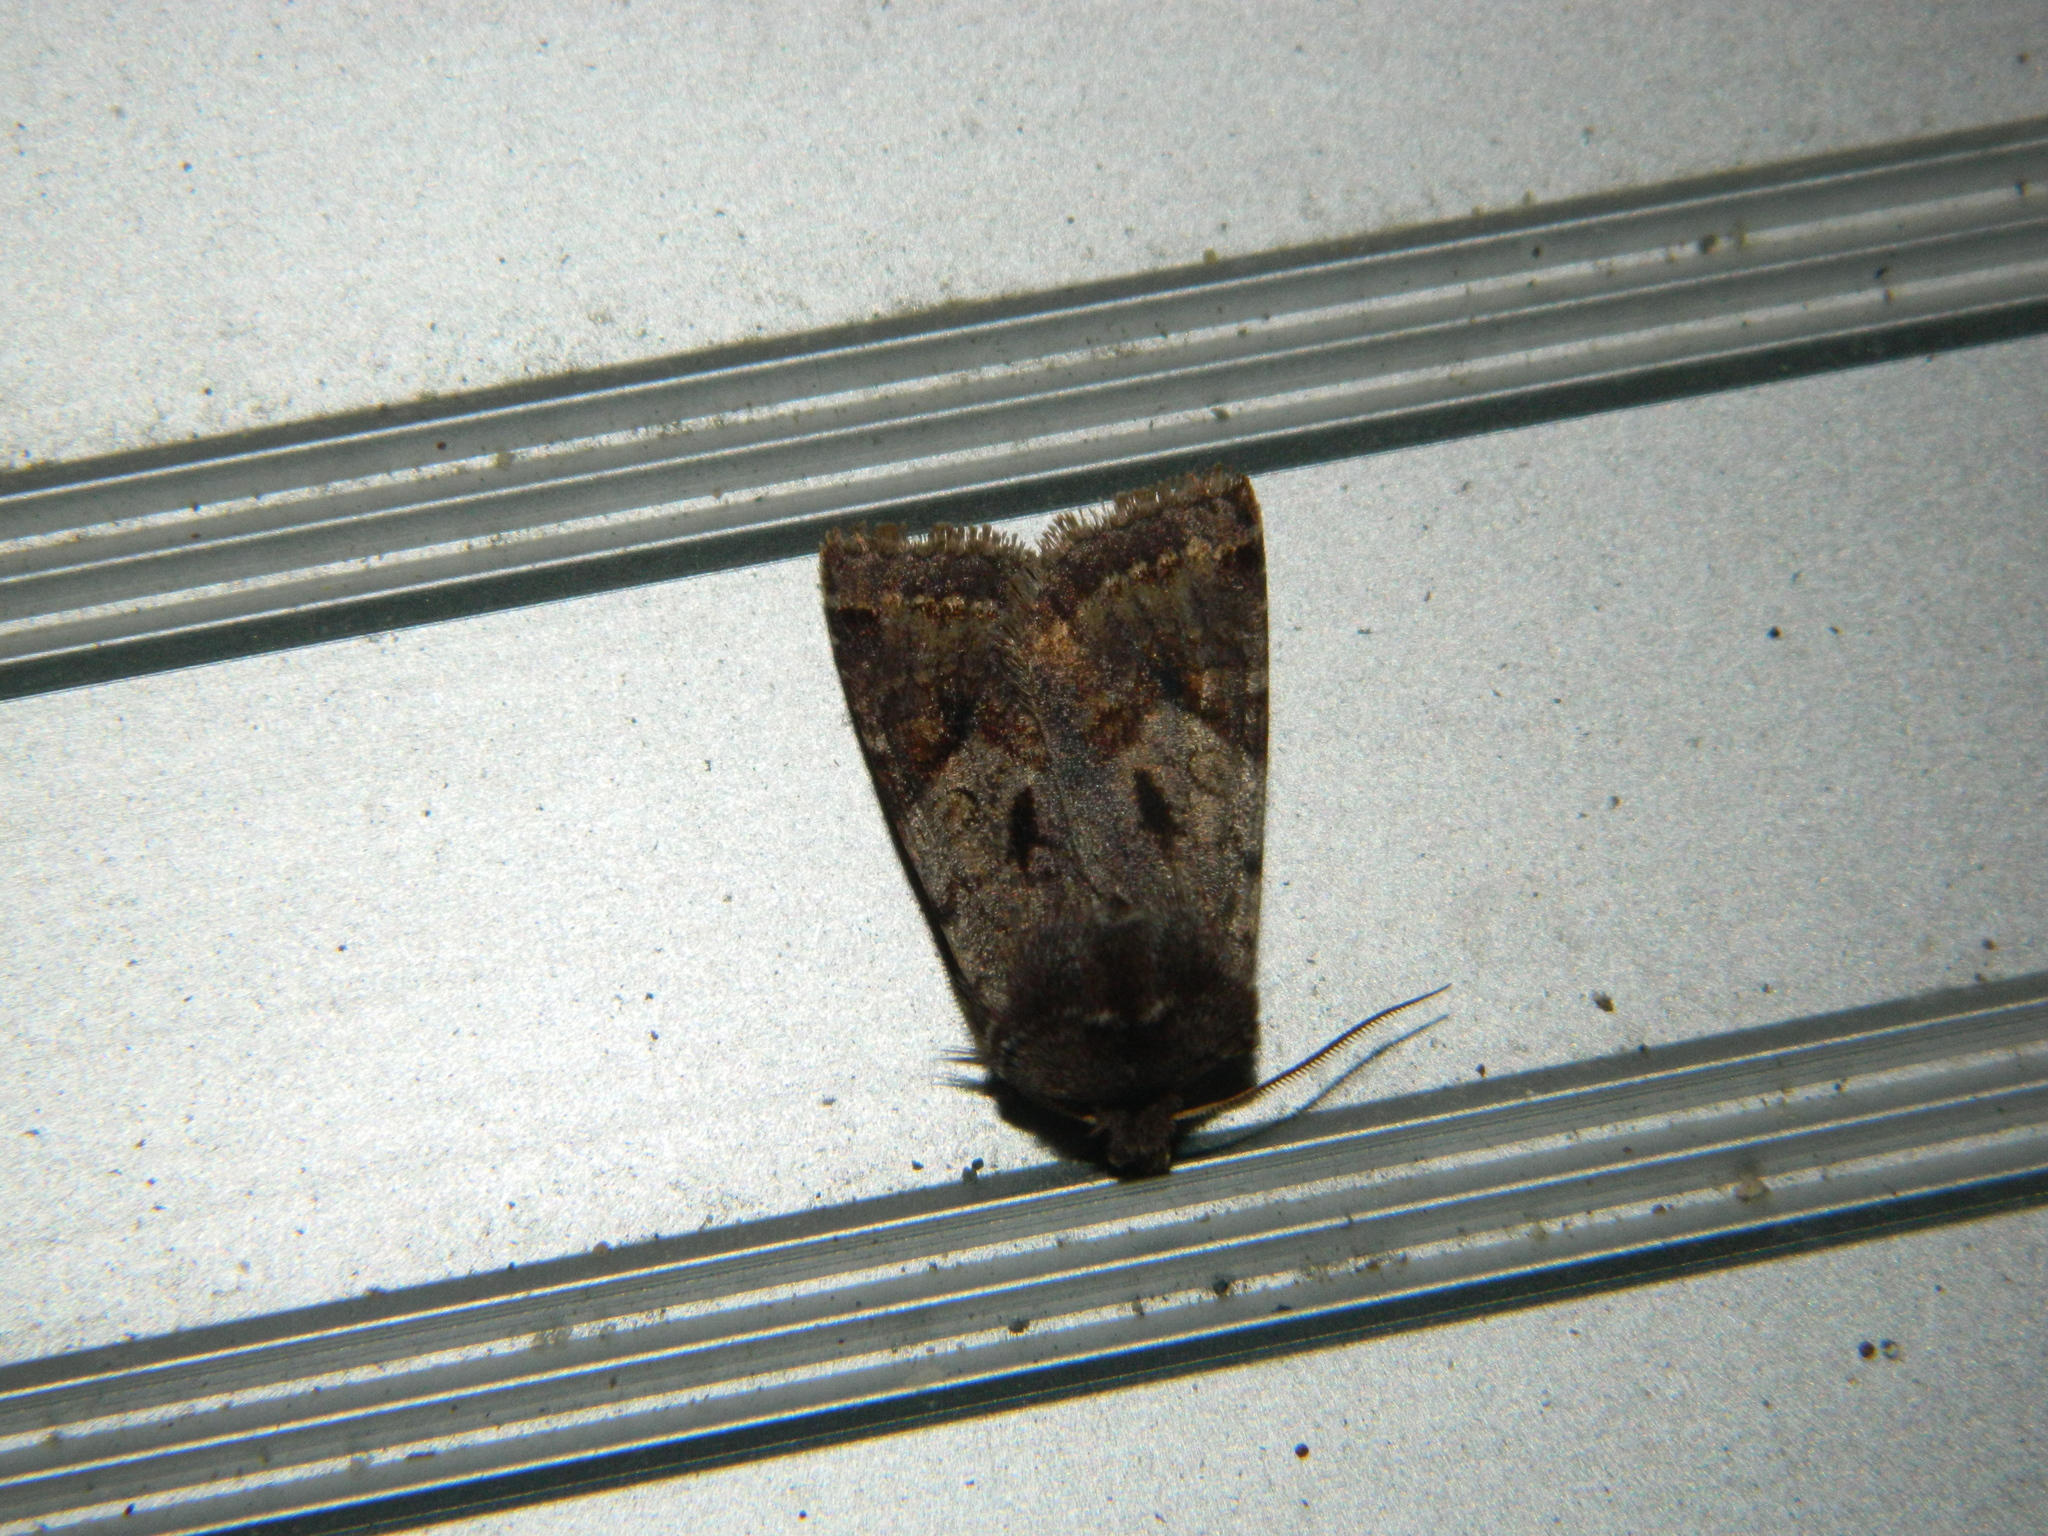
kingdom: Animalia
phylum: Arthropoda
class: Insecta
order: Lepidoptera
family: Noctuidae
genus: Cerastis
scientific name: Cerastis salicarum
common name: Willow dart
